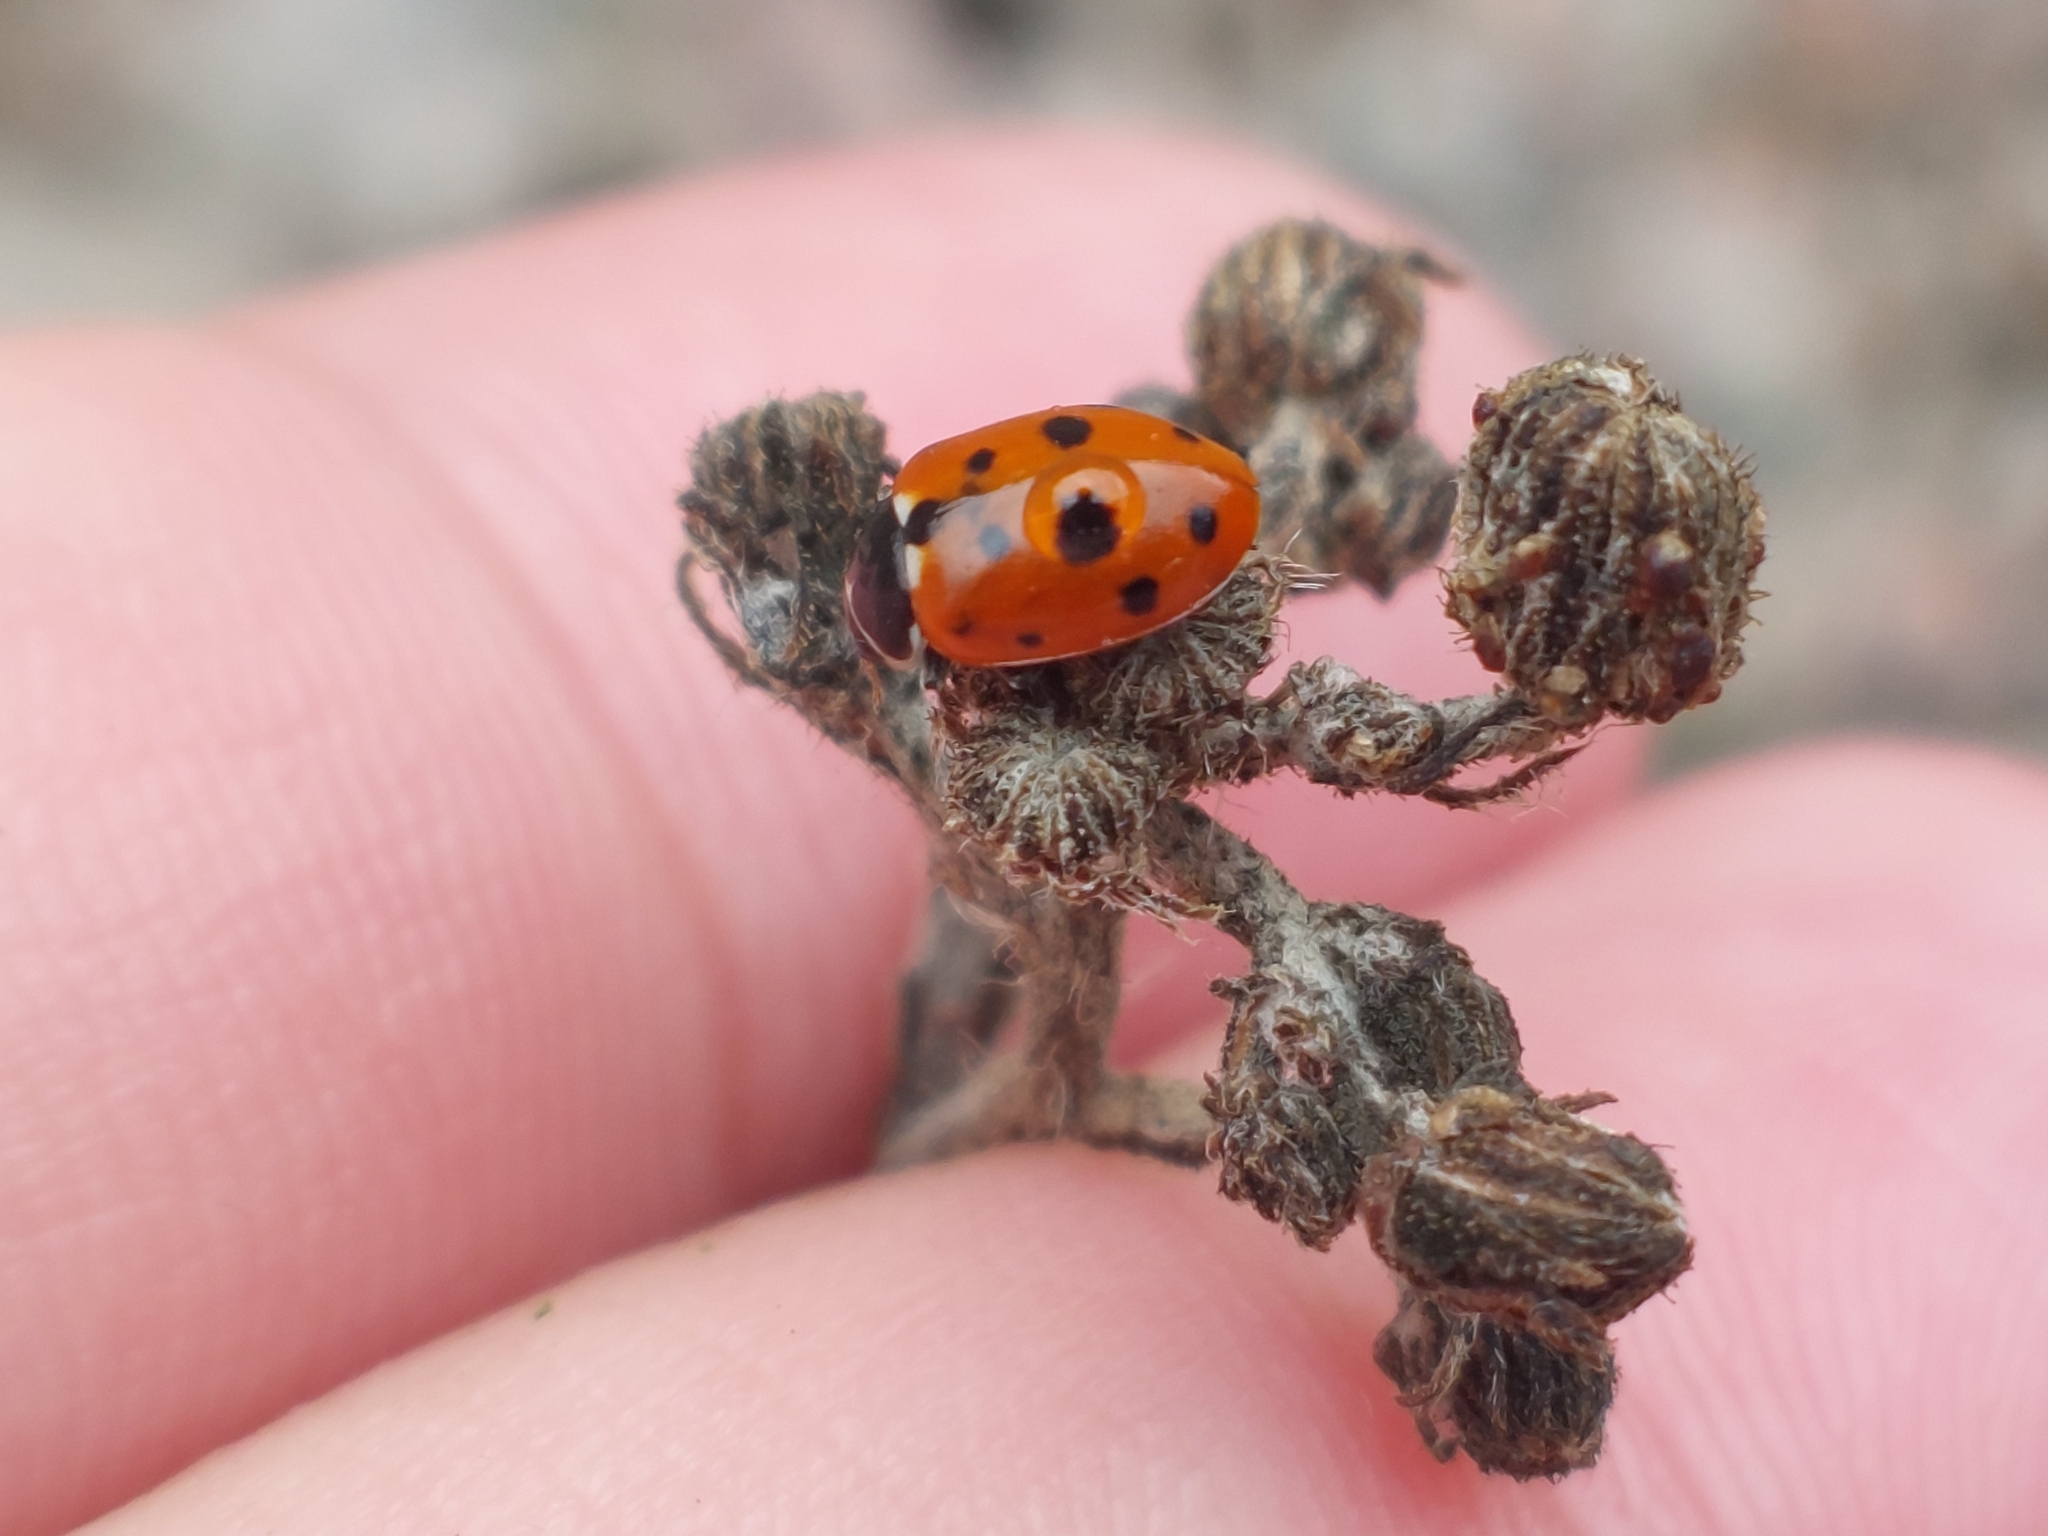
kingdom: Animalia
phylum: Arthropoda
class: Insecta
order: Coleoptera
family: Coccinellidae
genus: Hippodamia
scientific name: Hippodamia variegata
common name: Ladybird beetle
